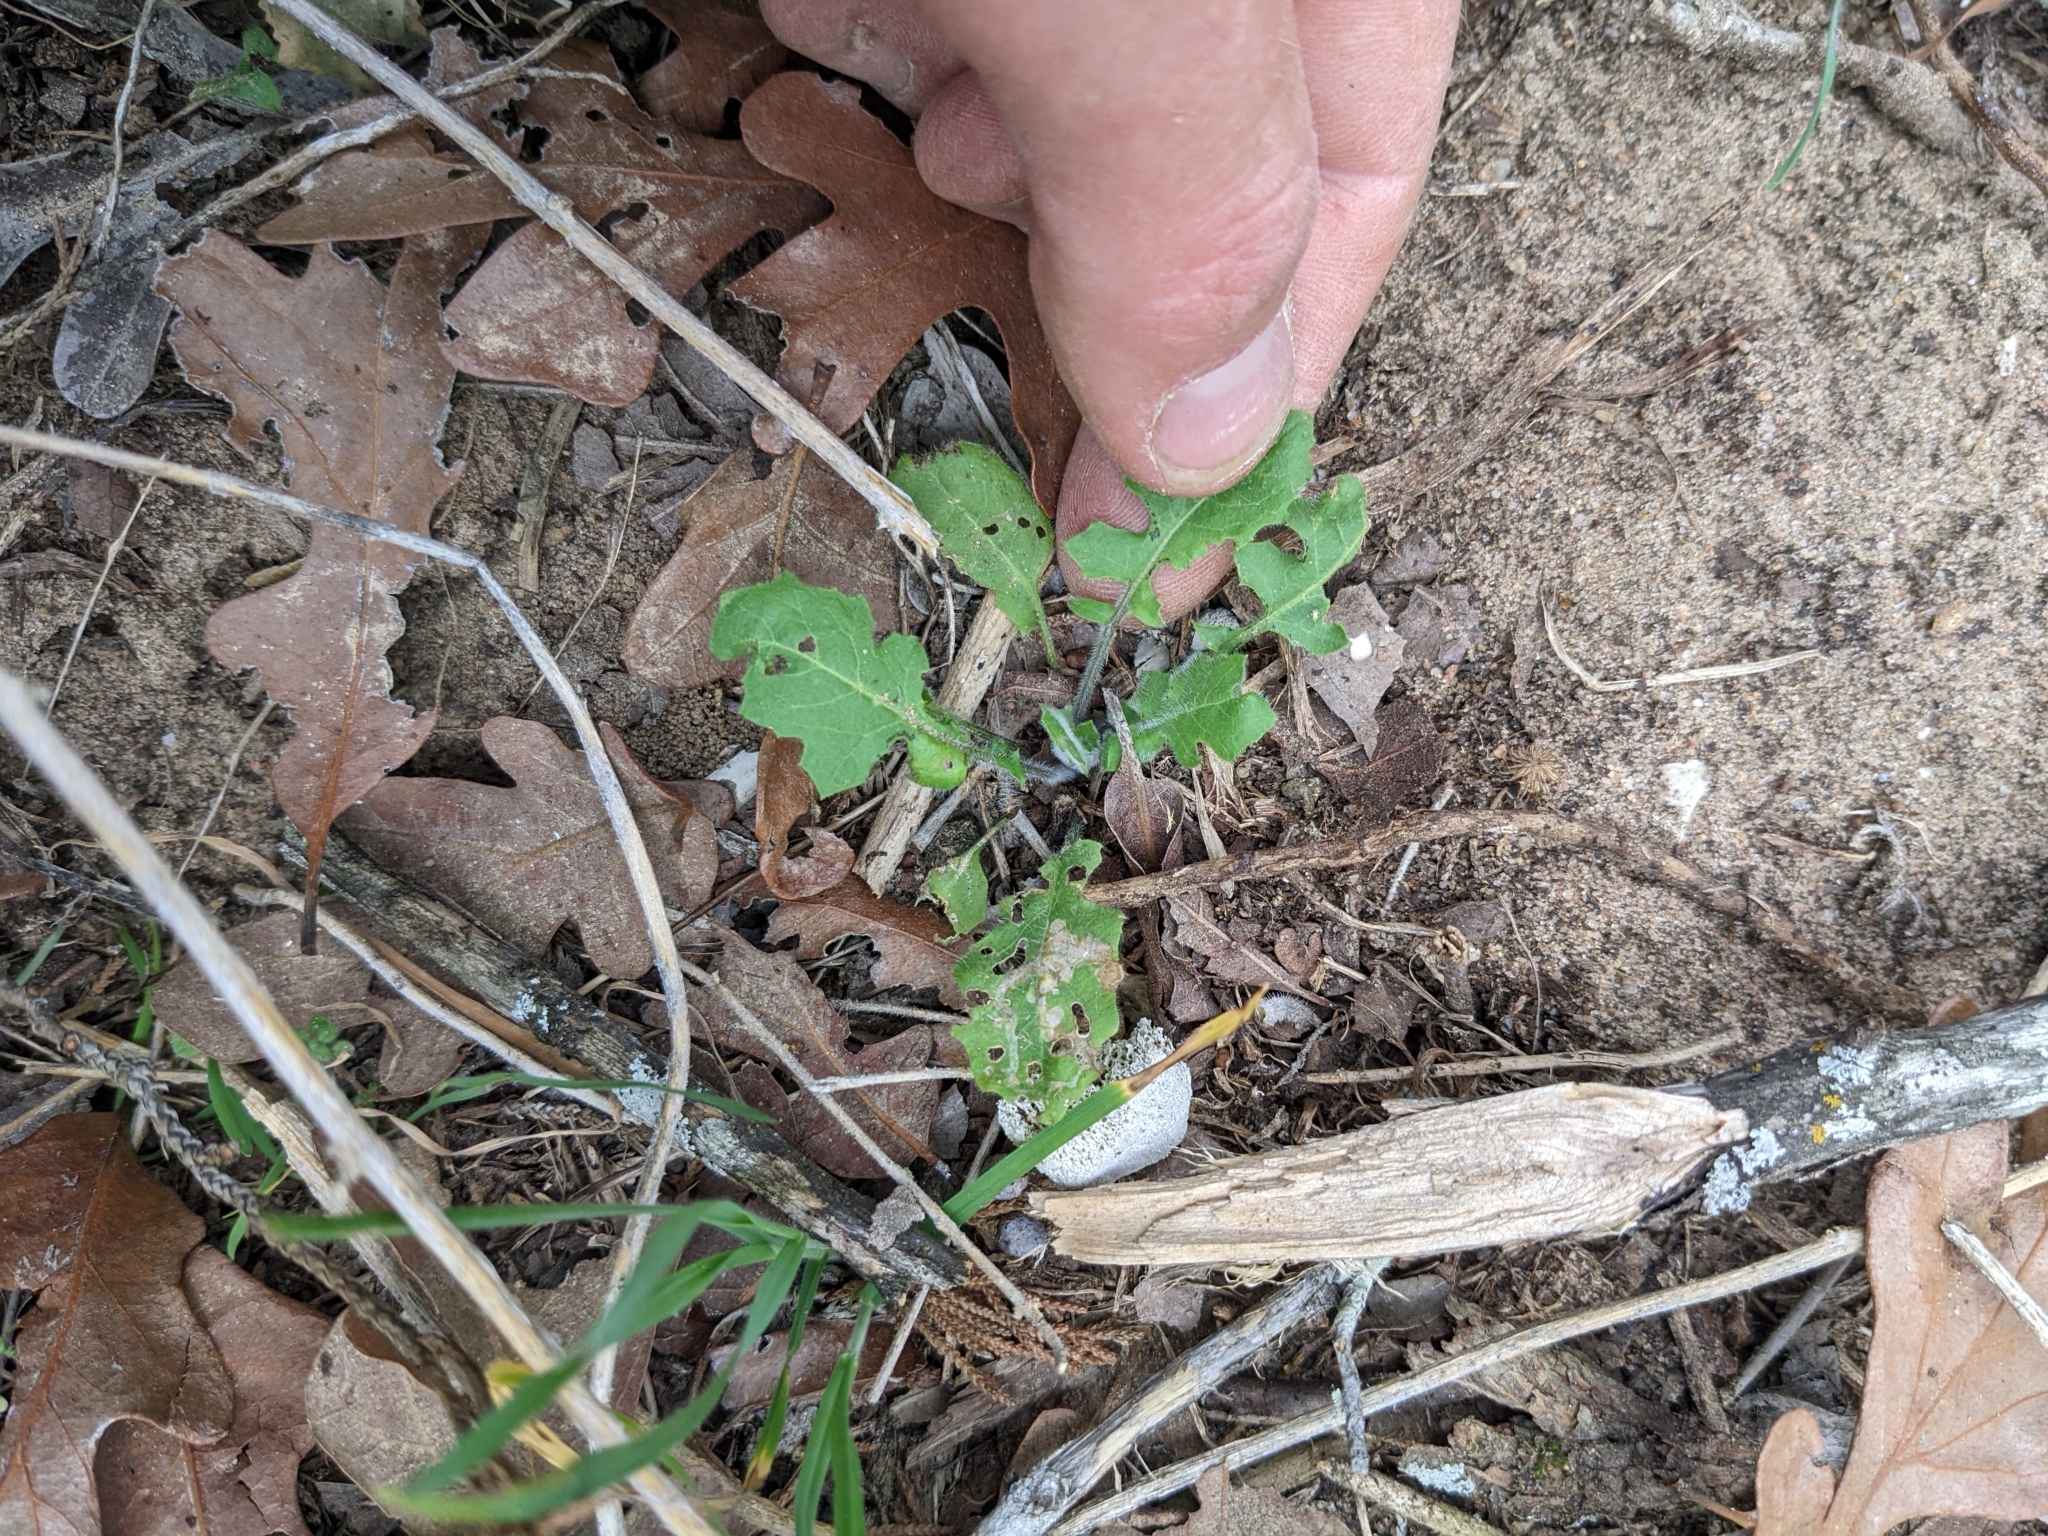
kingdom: Plantae
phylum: Tracheophyta
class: Magnoliopsida
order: Brassicales
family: Brassicaceae
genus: Streptanthus
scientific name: Streptanthus petiolaris
